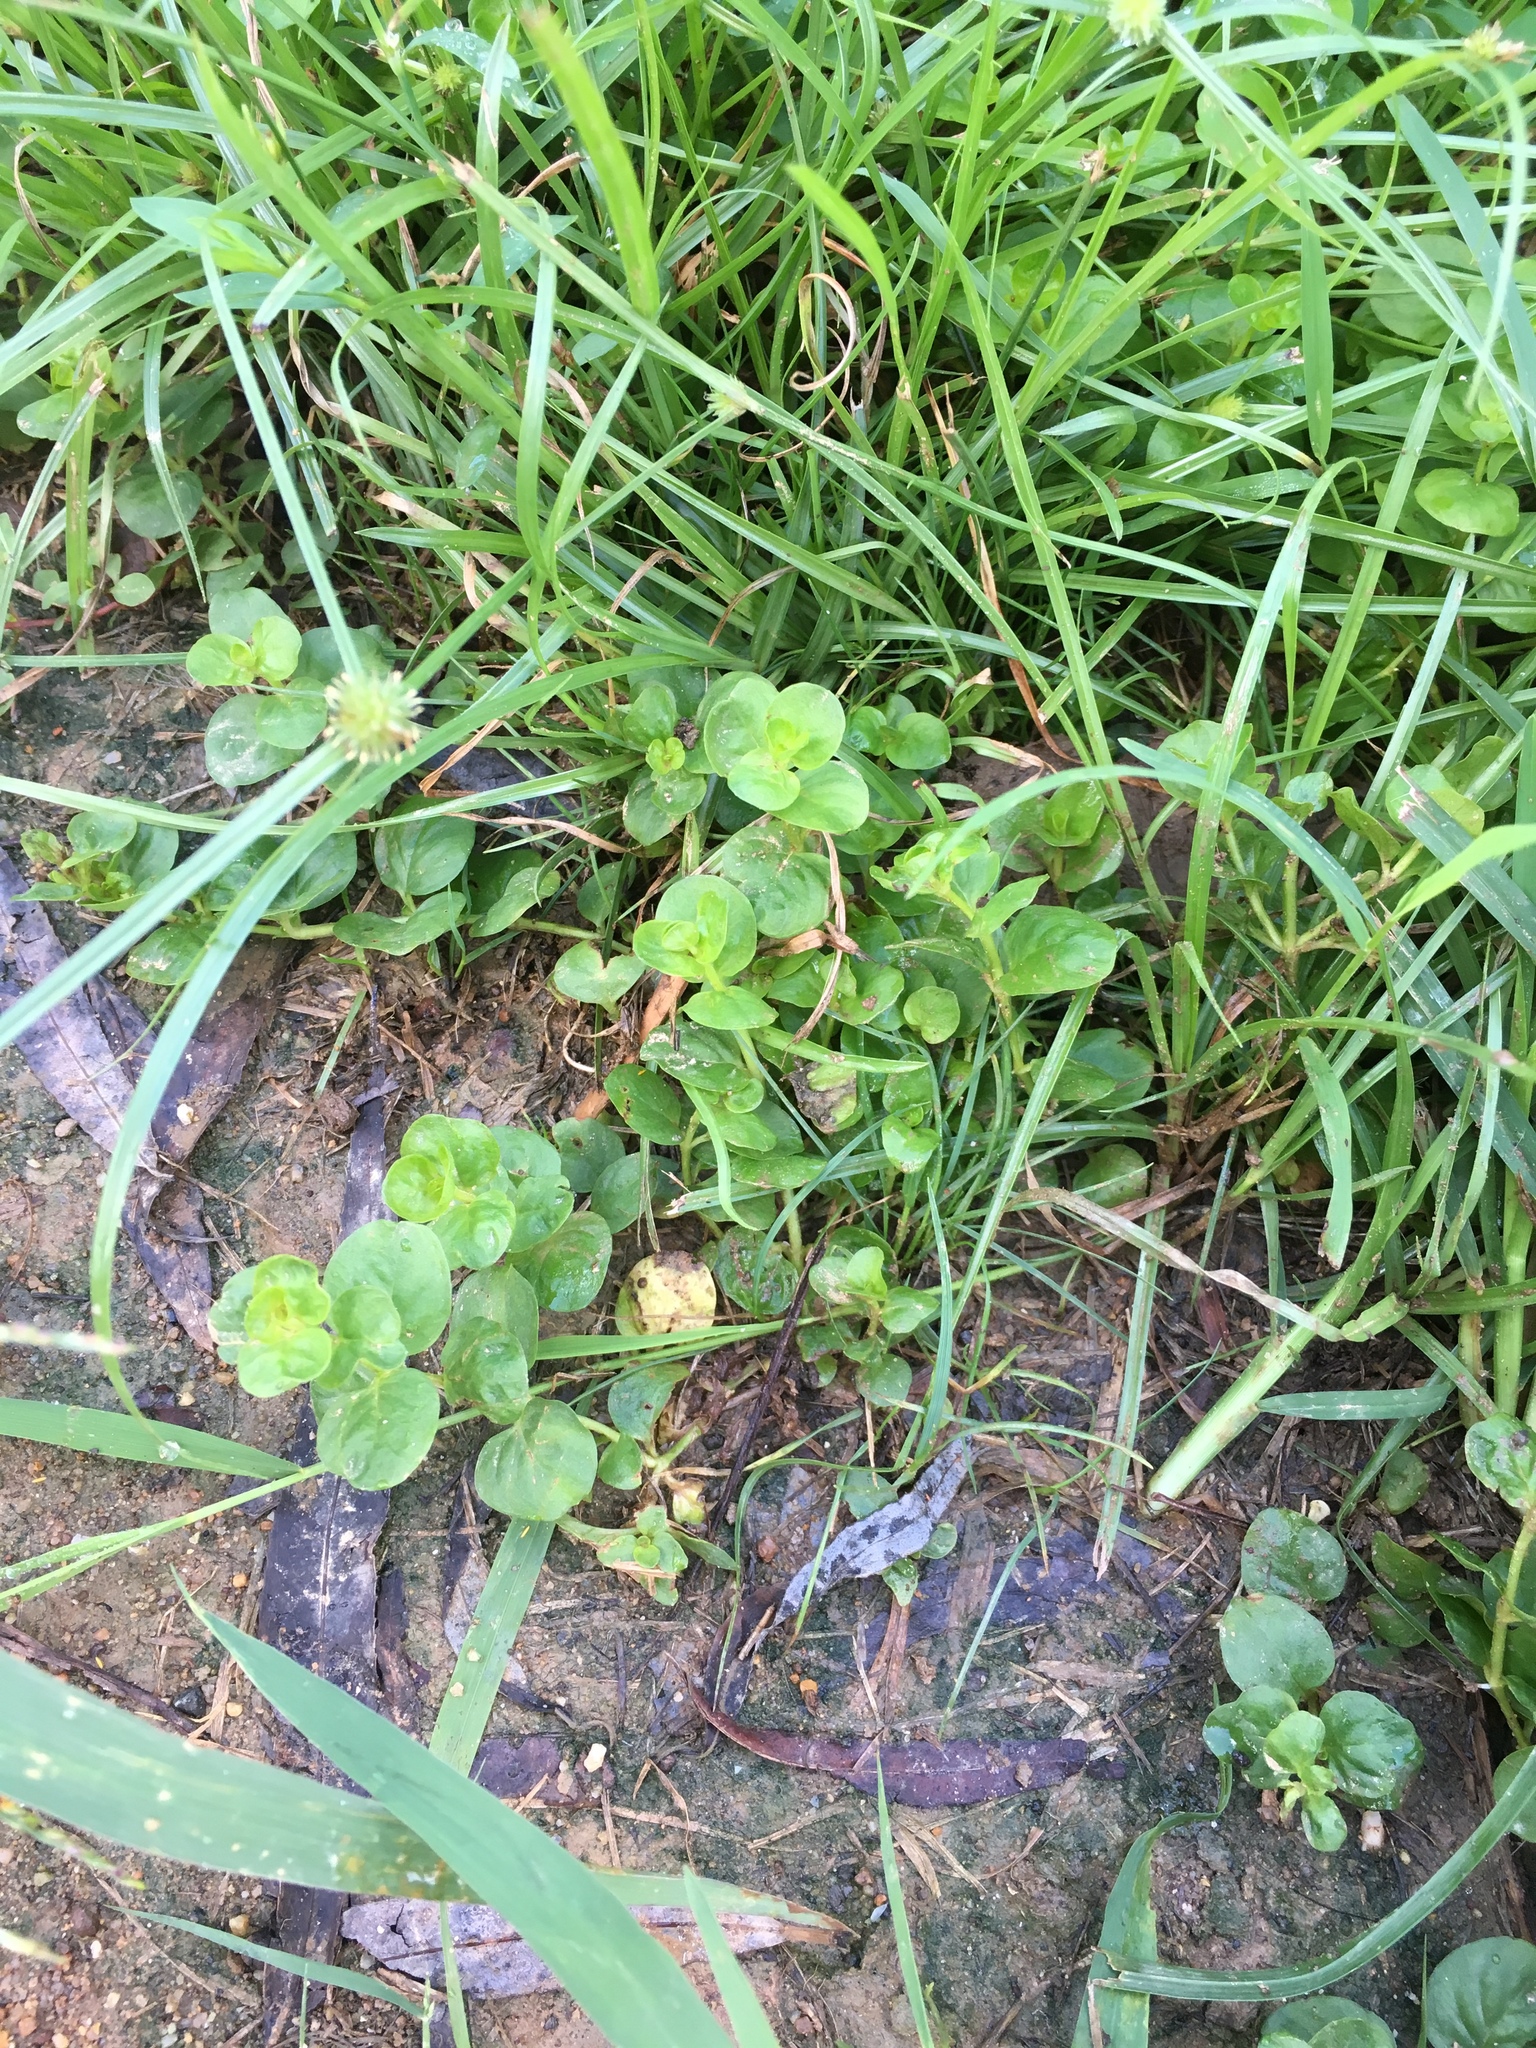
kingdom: Plantae
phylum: Tracheophyta
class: Magnoliopsida
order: Ericales
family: Primulaceae
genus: Lysimachia
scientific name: Lysimachia nummularia
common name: Moneywort
